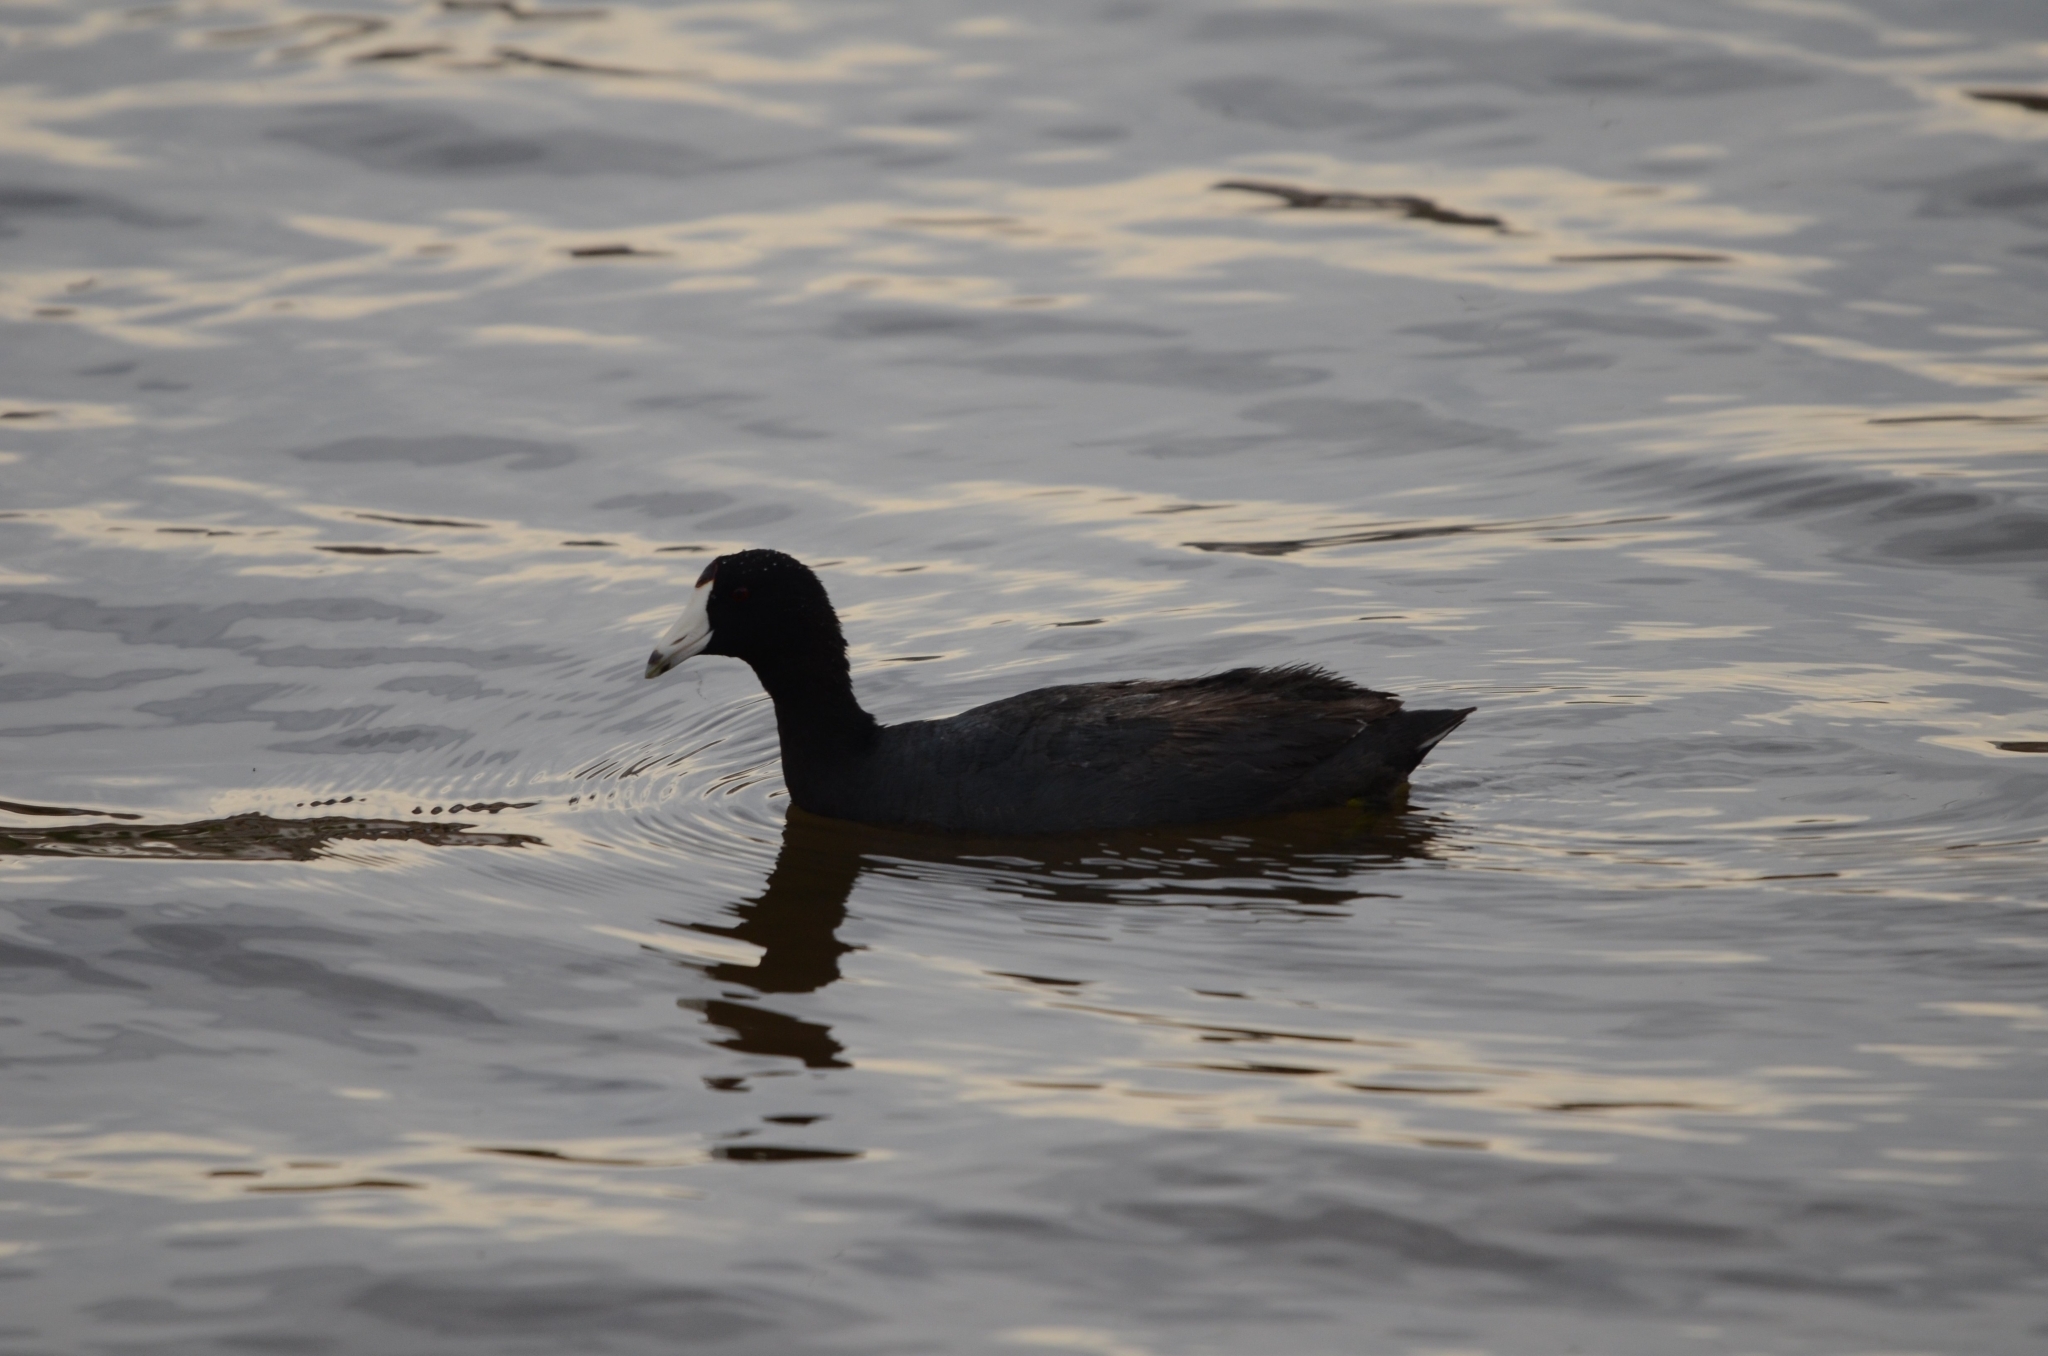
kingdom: Animalia
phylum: Chordata
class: Aves
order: Gruiformes
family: Rallidae
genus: Fulica
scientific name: Fulica americana
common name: American coot
